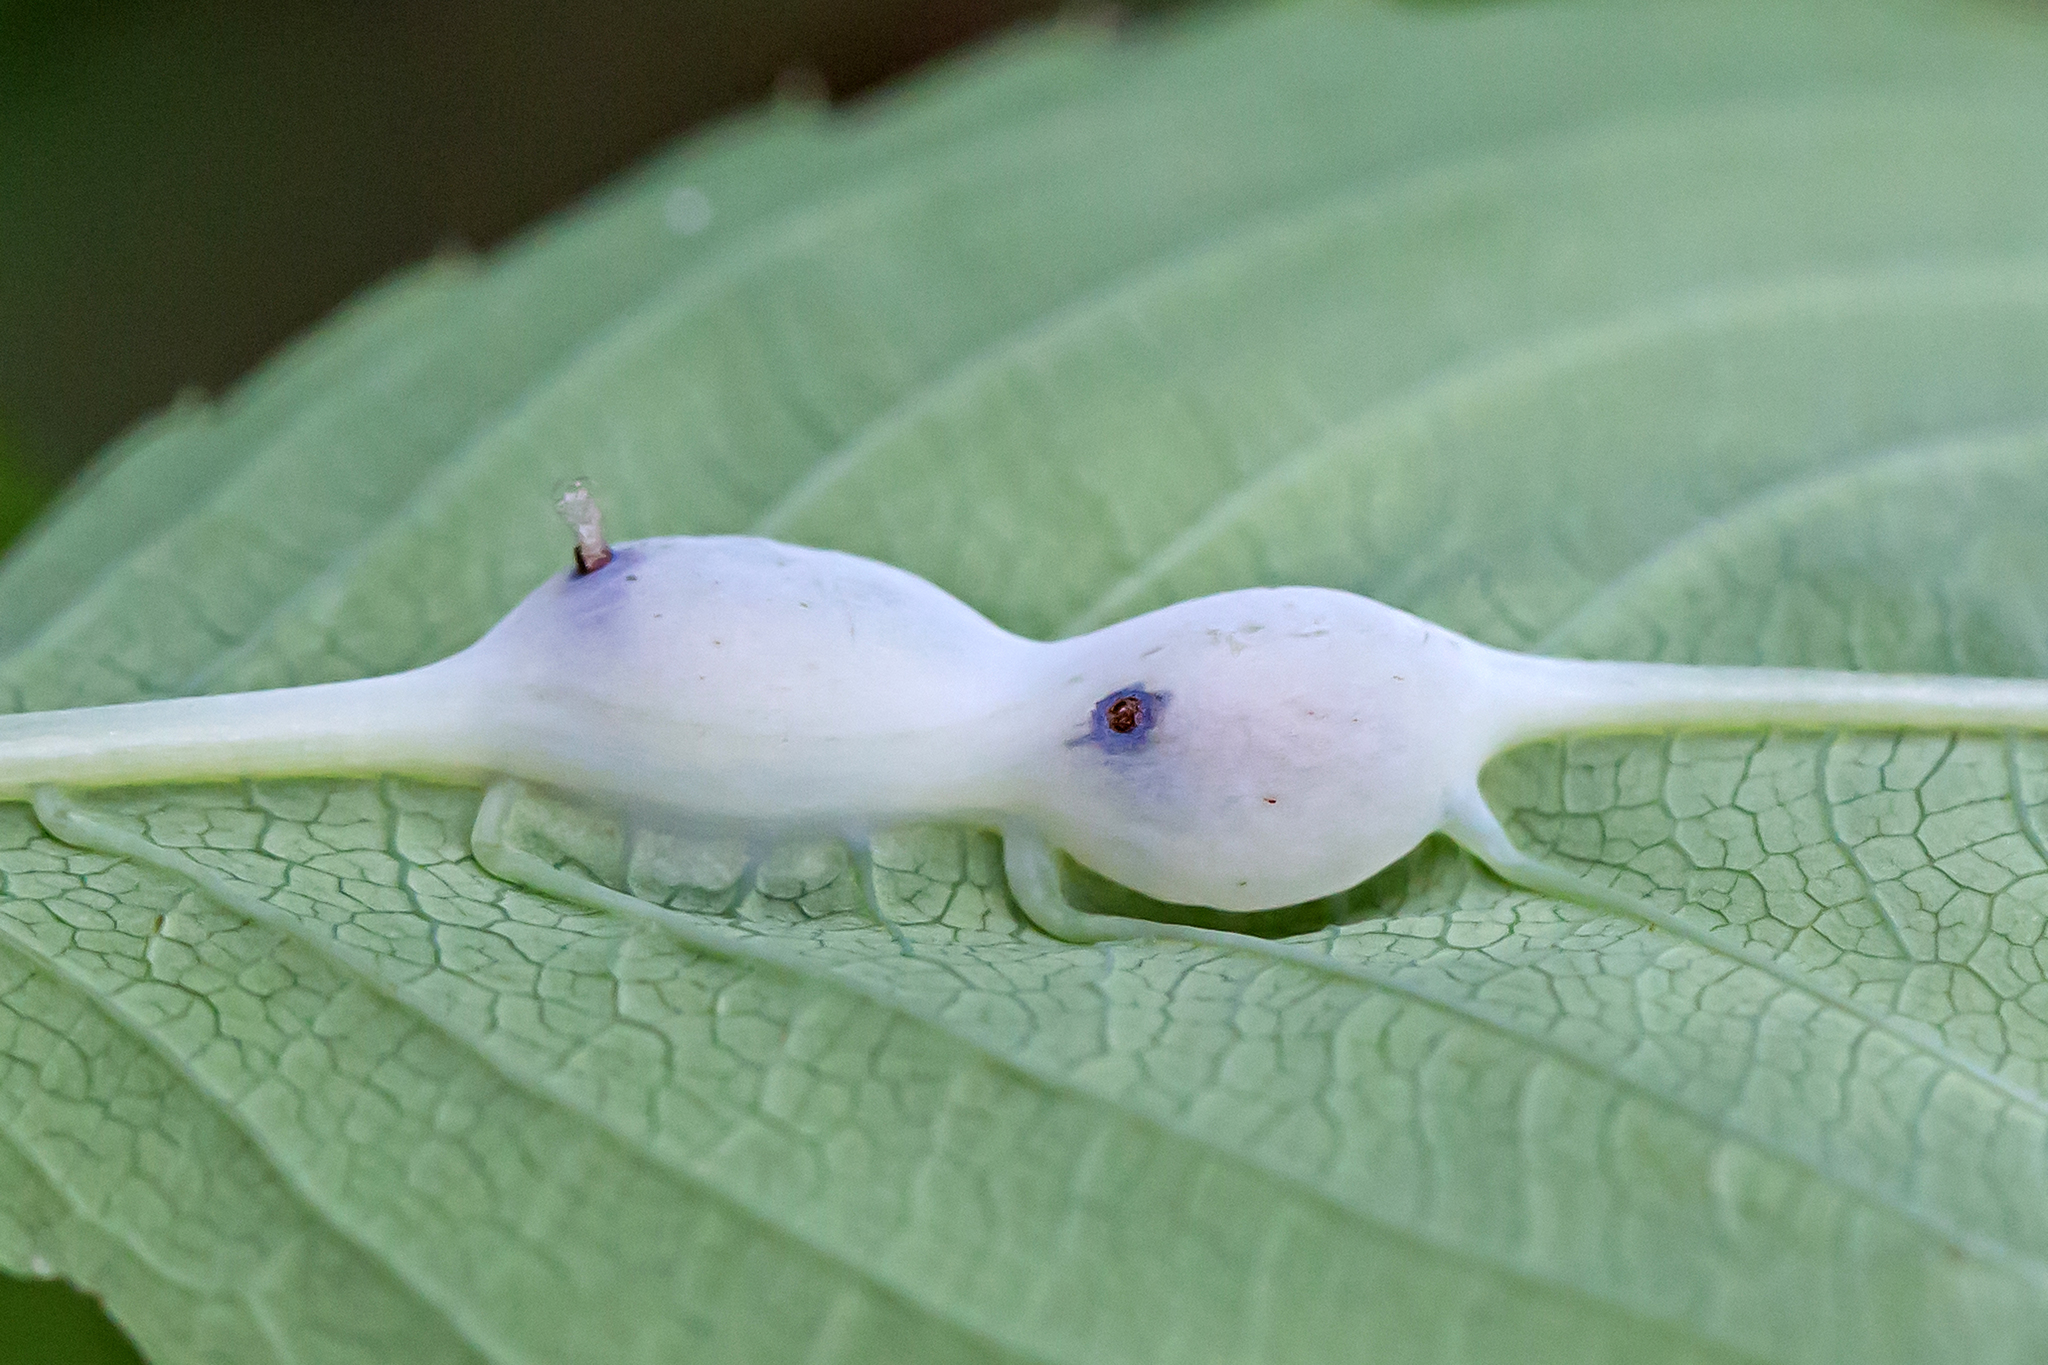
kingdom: Animalia
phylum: Arthropoda
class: Insecta
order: Diptera
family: Cecidomyiidae
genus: Neolasioptera
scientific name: Neolasioptera impatientifolia
